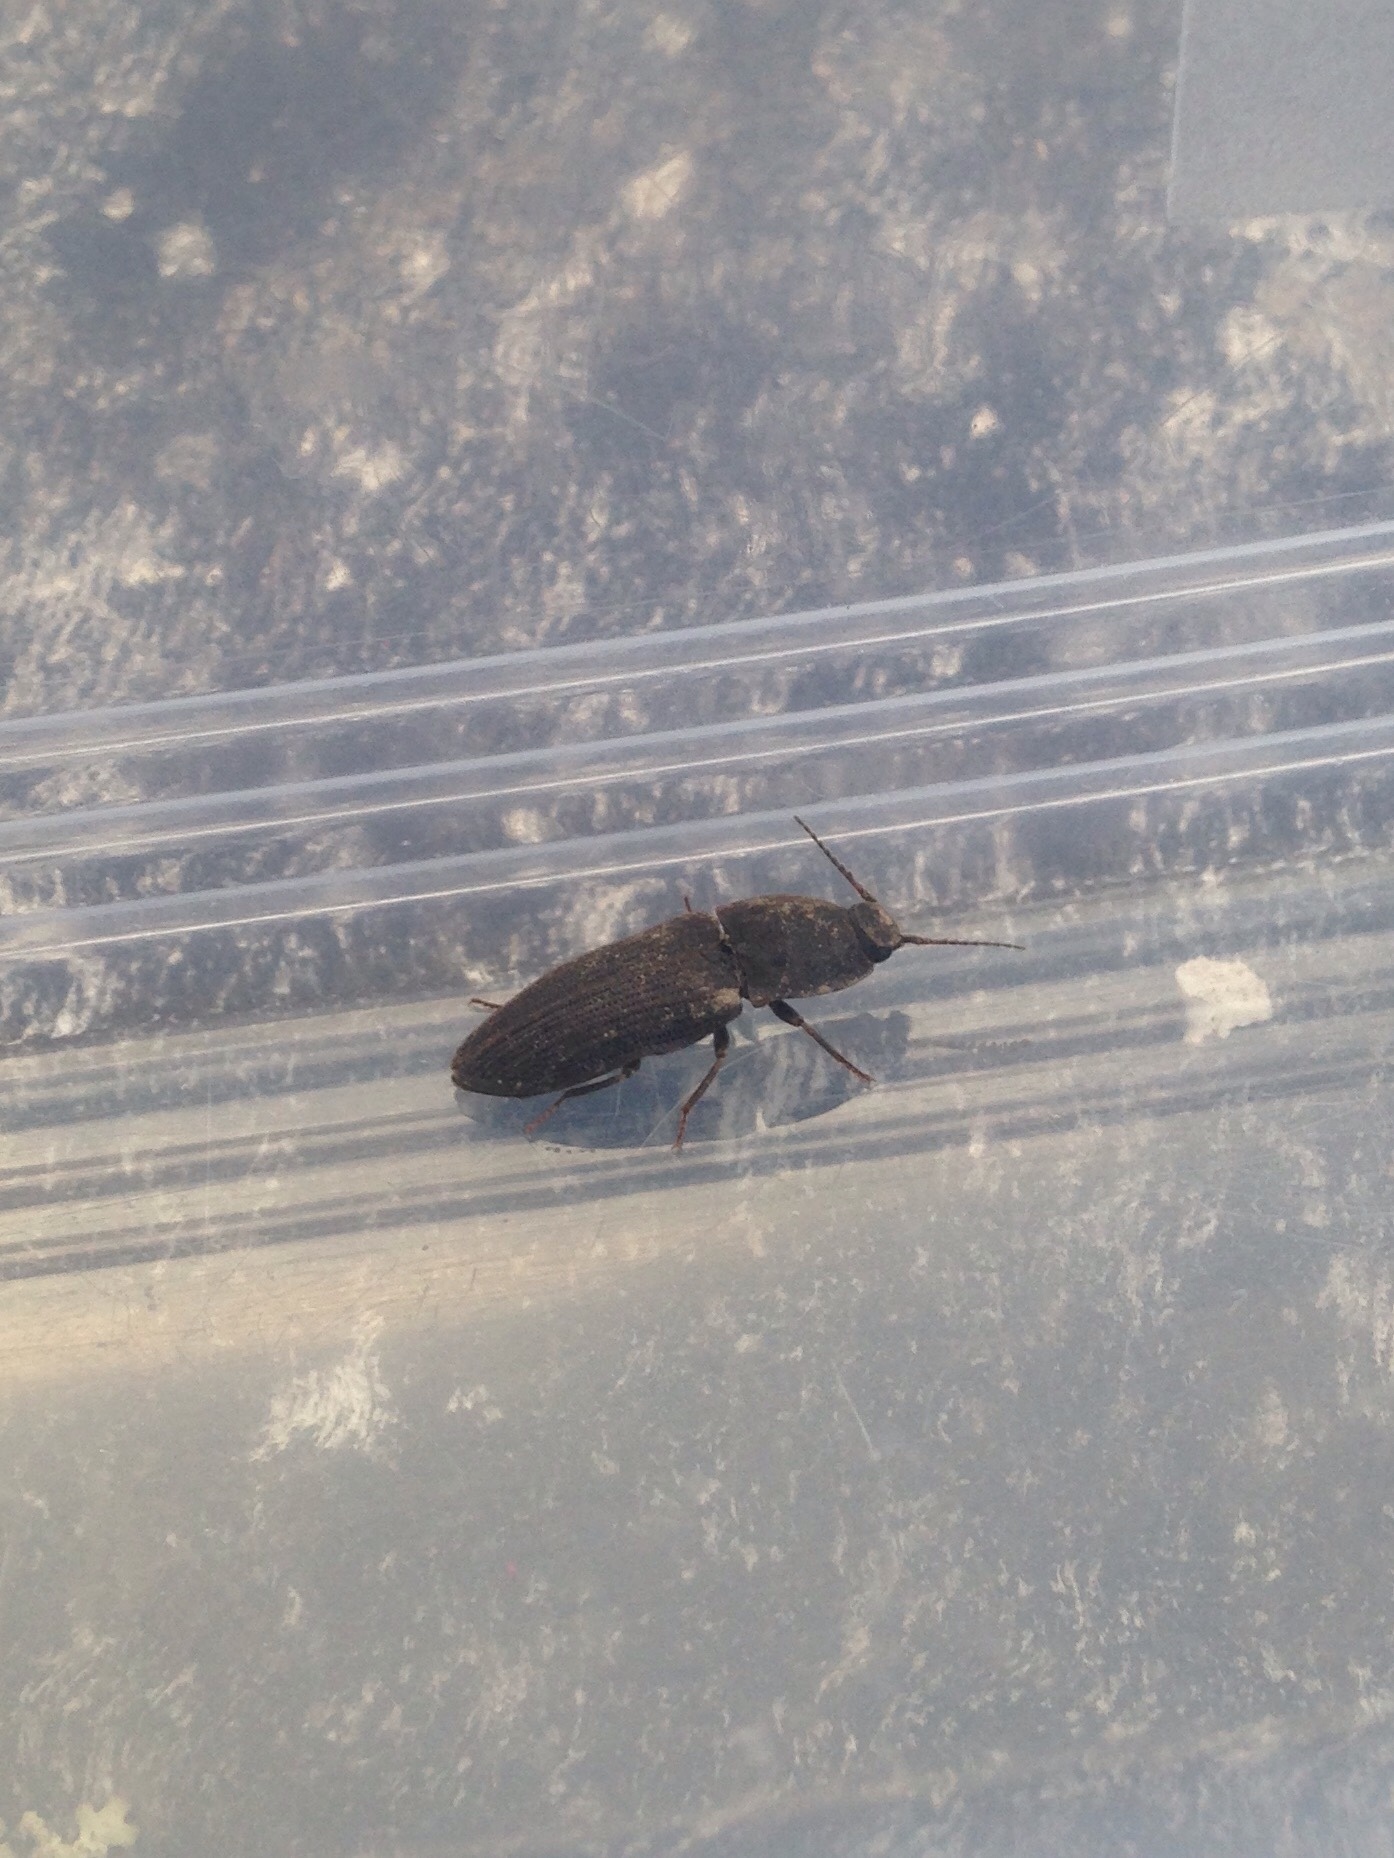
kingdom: Animalia
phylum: Arthropoda
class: Insecta
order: Coleoptera
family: Elateridae
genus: Agrypnus
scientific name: Agrypnus
